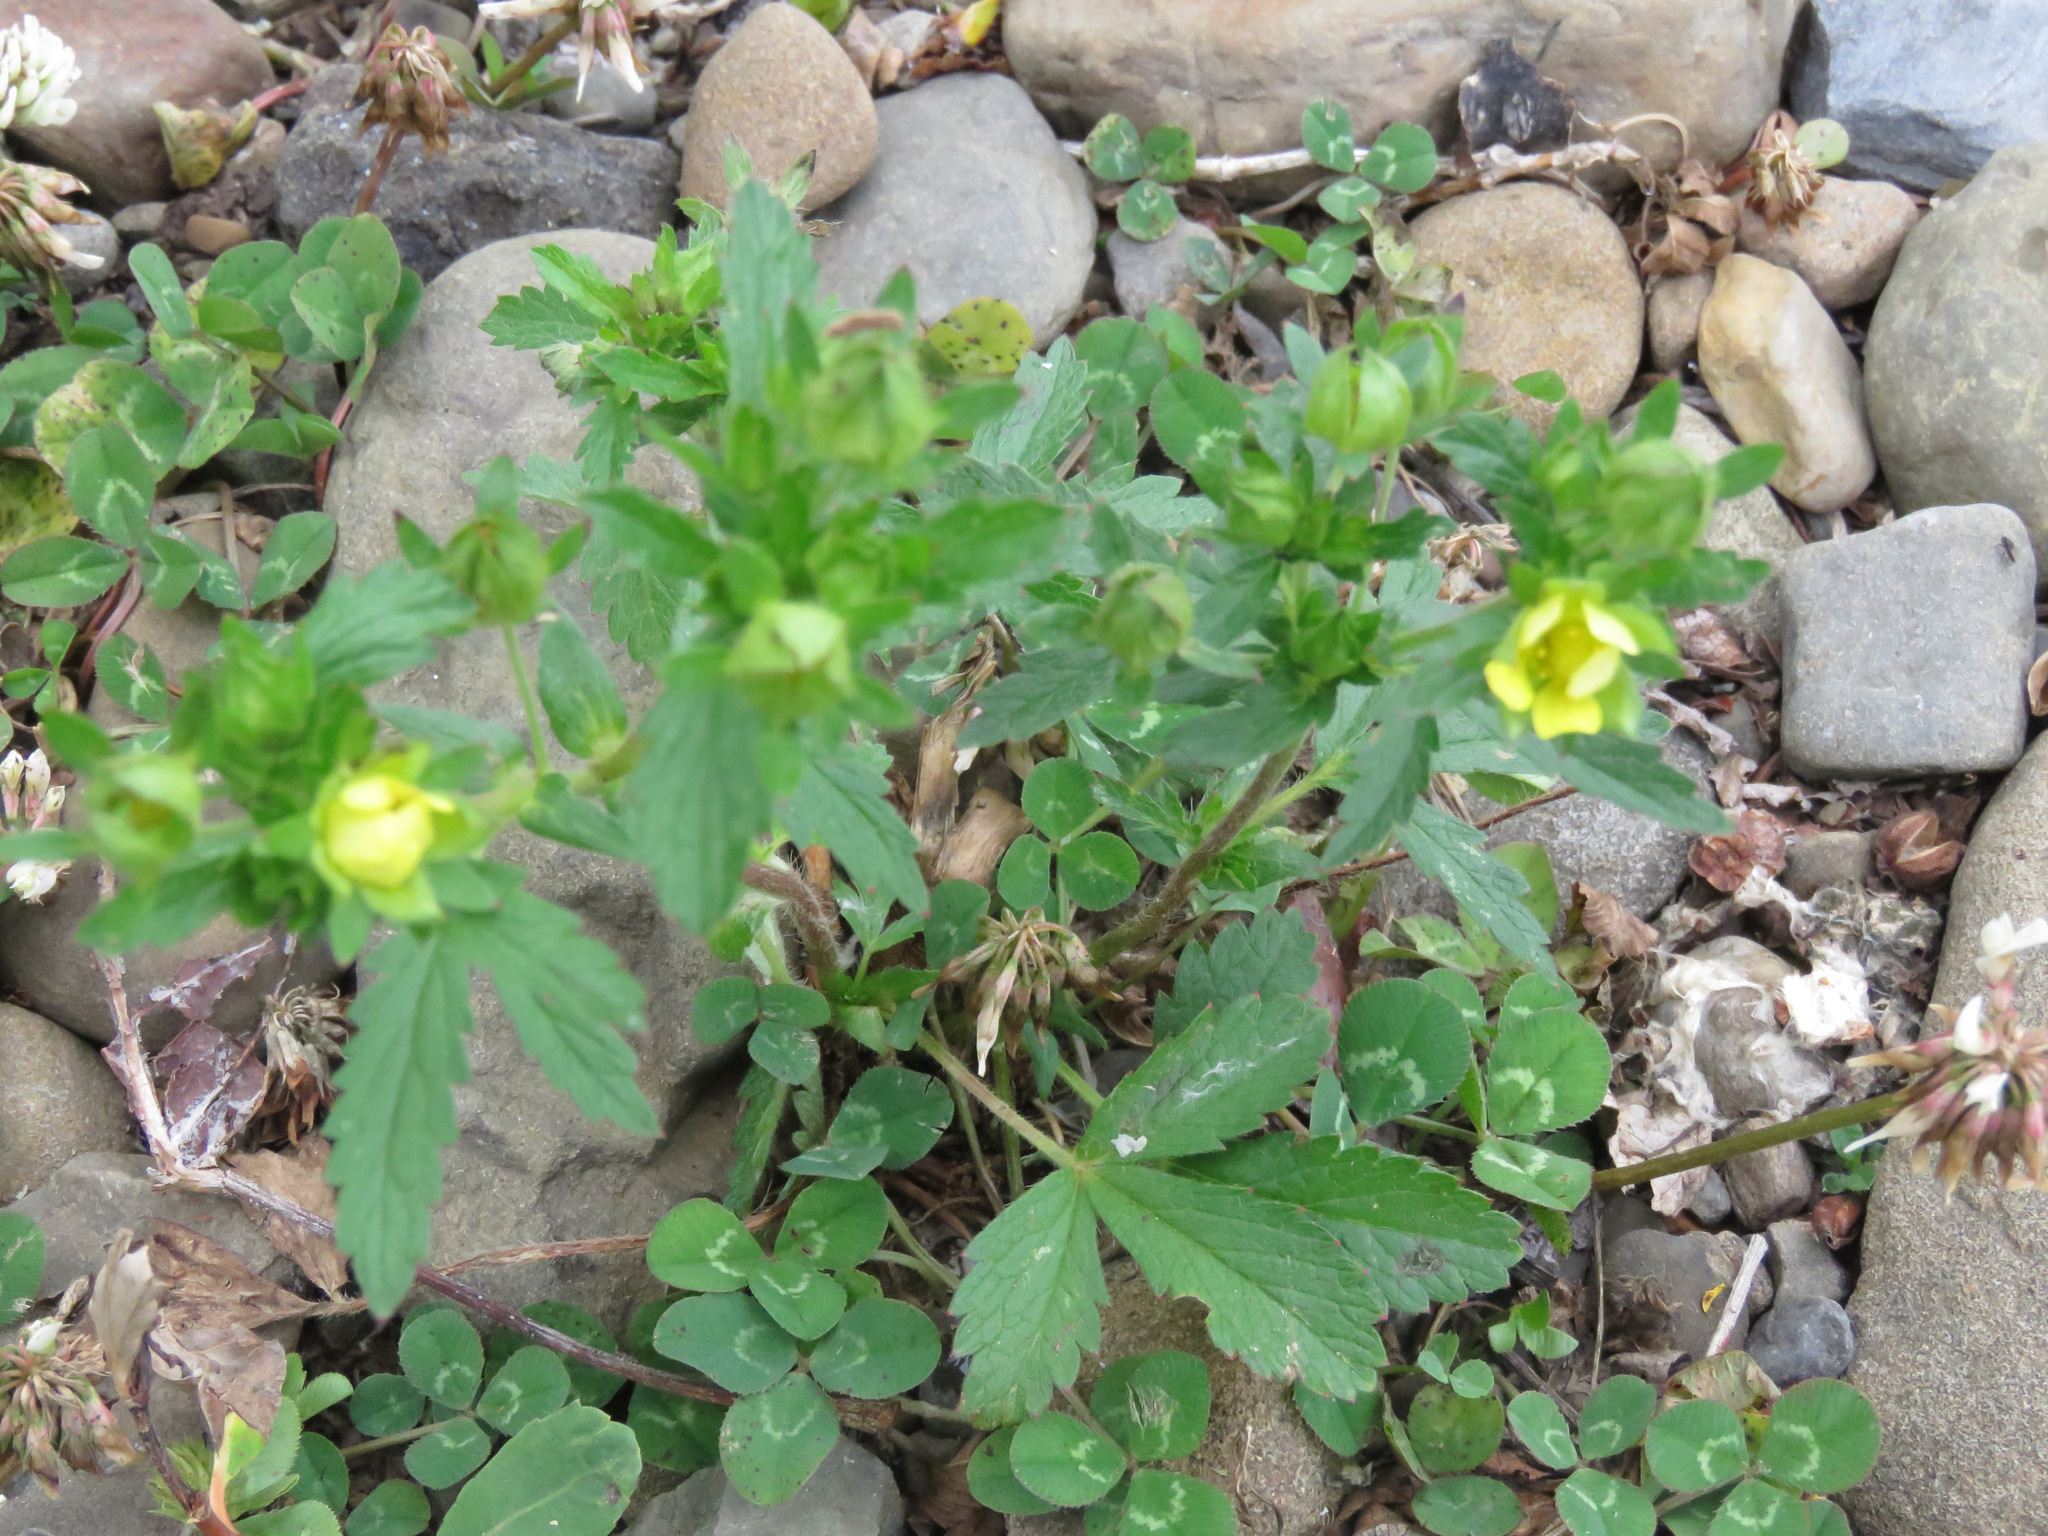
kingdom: Plantae
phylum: Tracheophyta
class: Magnoliopsida
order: Rosales
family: Rosaceae
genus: Potentilla
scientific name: Potentilla norvegica
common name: Ternate-leaved cinquefoil
